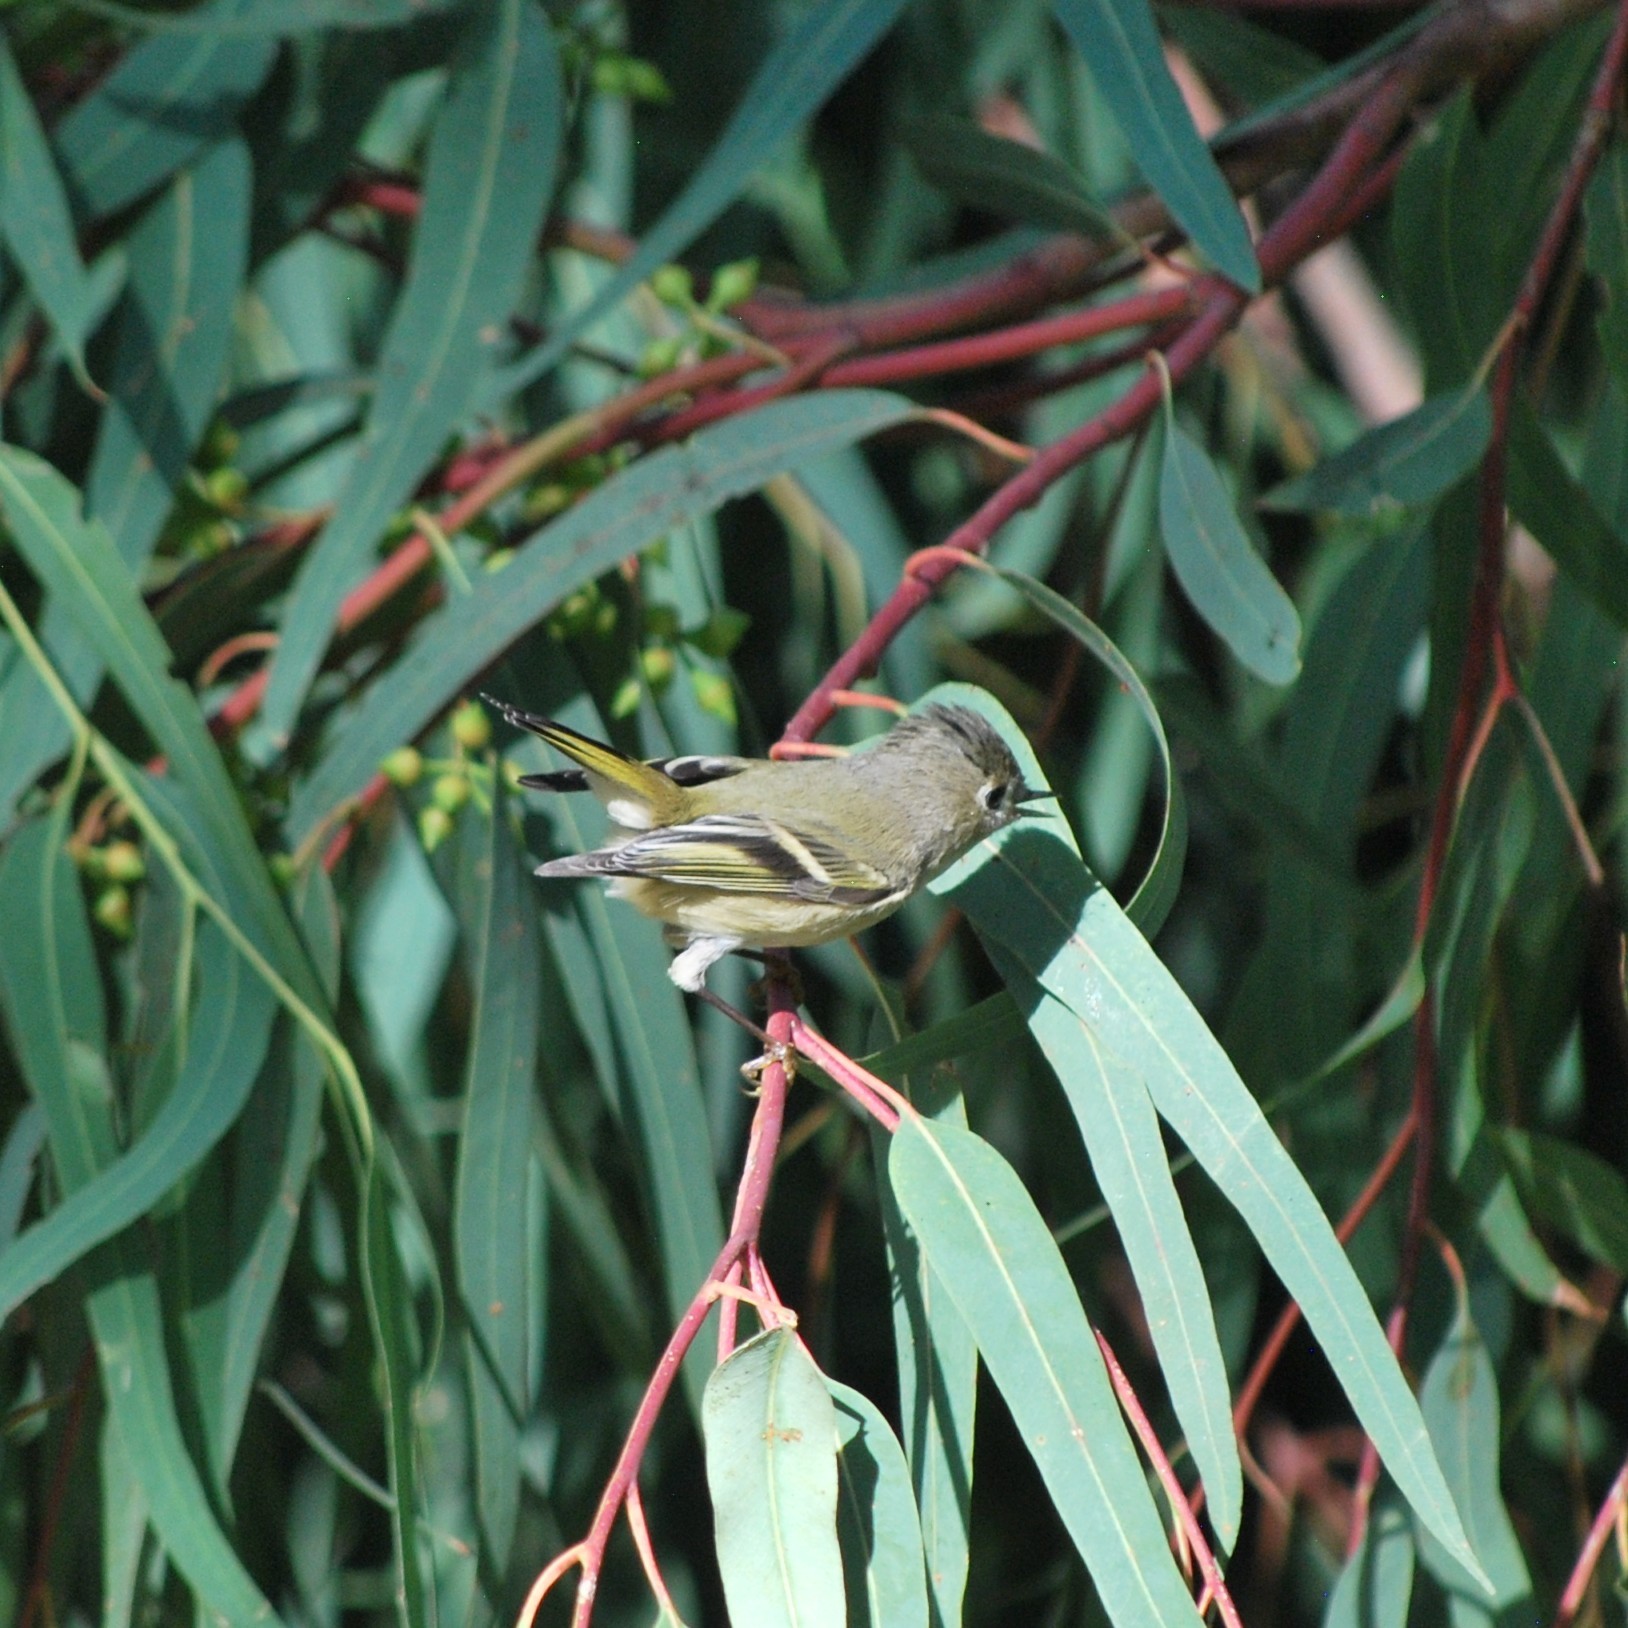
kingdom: Animalia
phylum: Chordata
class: Aves
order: Passeriformes
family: Regulidae
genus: Regulus
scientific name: Regulus calendula
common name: Ruby-crowned kinglet
